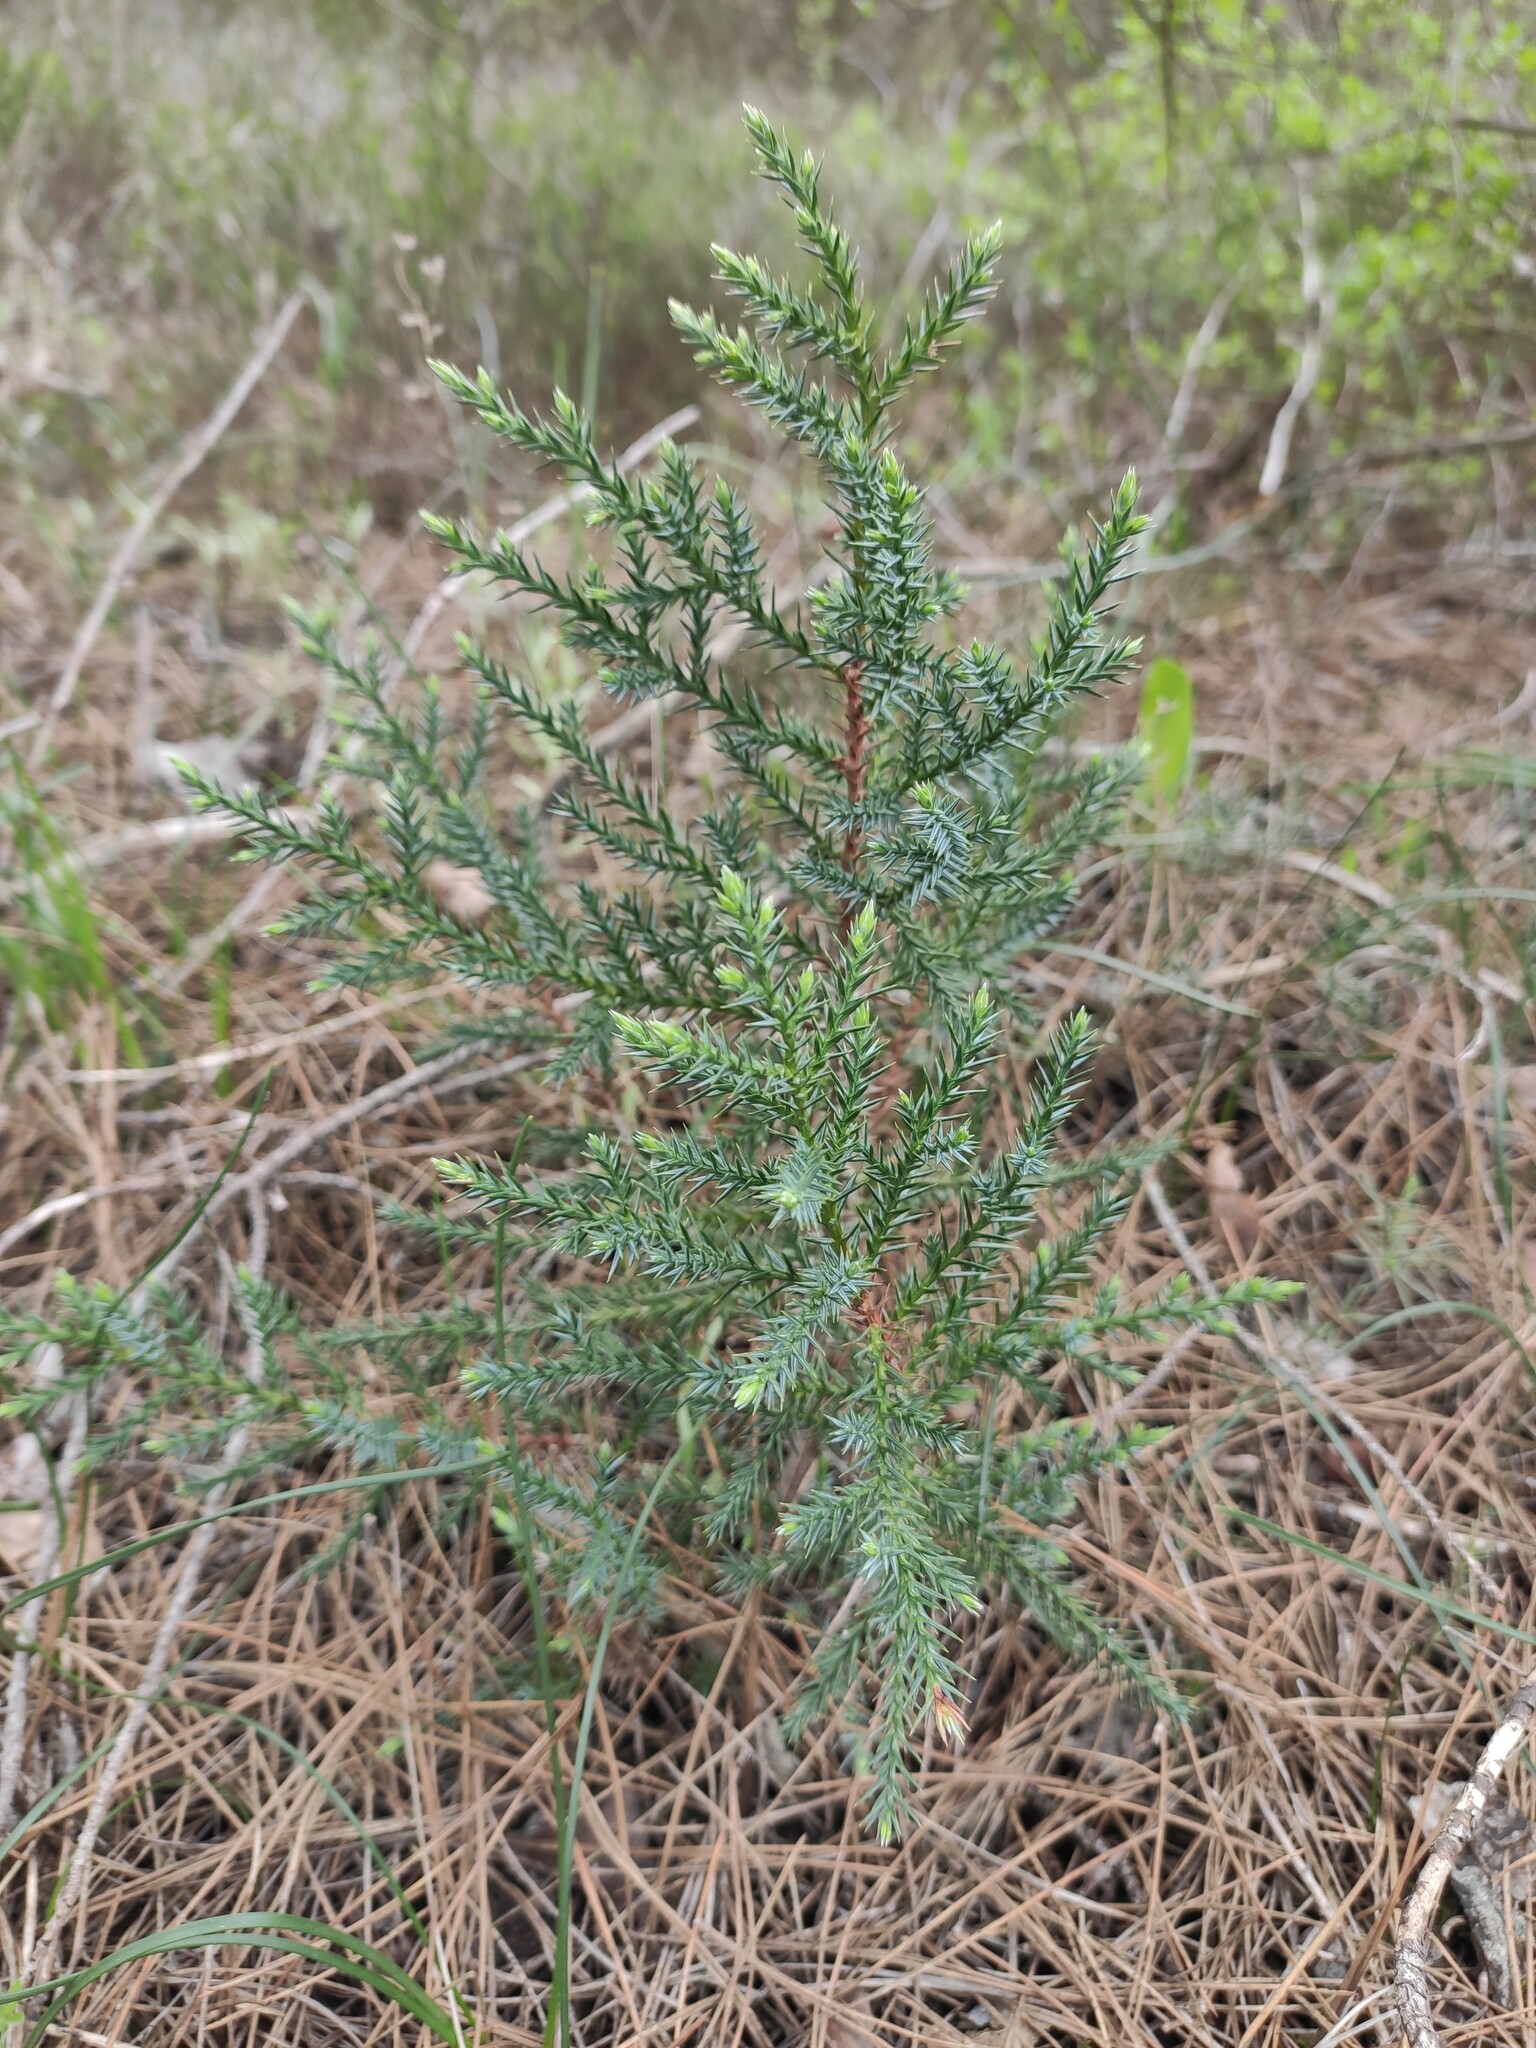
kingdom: Plantae
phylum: Tracheophyta
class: Pinopsida
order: Pinales
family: Cupressaceae
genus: Juniperus
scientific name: Juniperus foetidissima
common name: Stinking juniper
